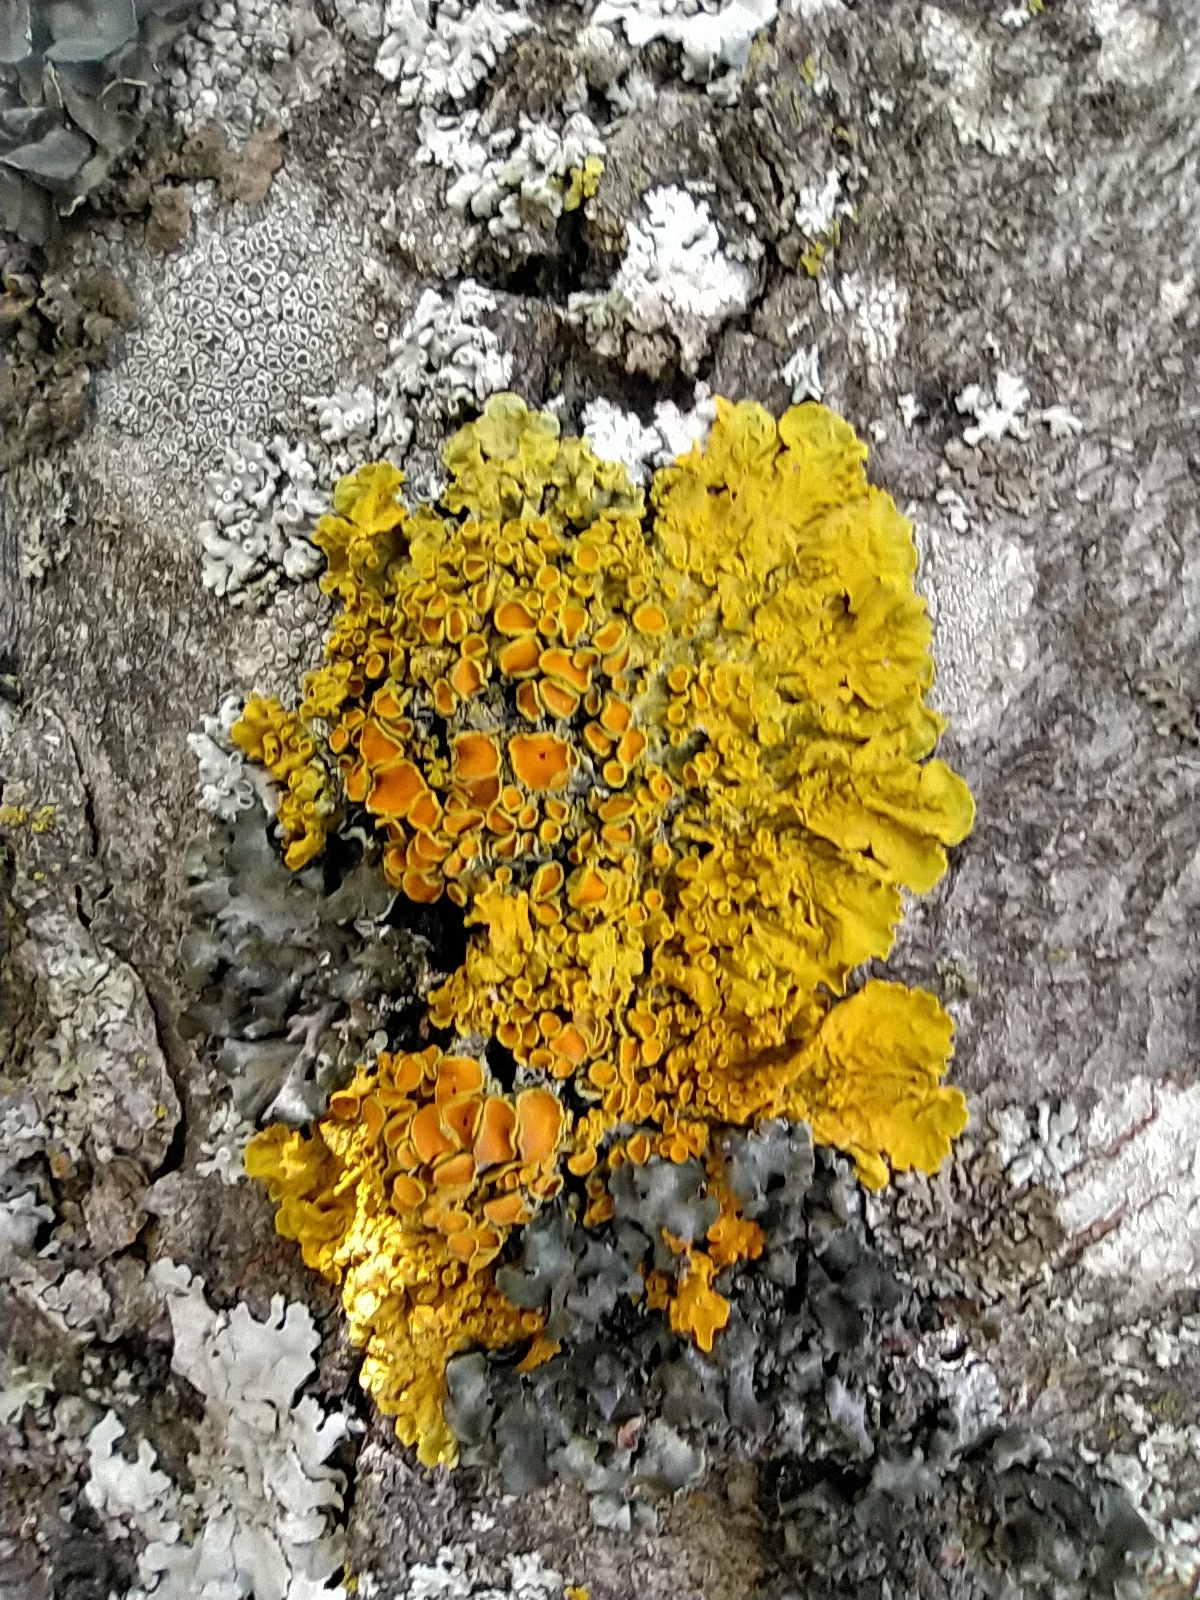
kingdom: Fungi
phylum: Ascomycota
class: Lecanoromycetes
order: Teloschistales
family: Teloschistaceae
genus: Xanthoria
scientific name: Xanthoria parietina
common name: Common orange lichen
